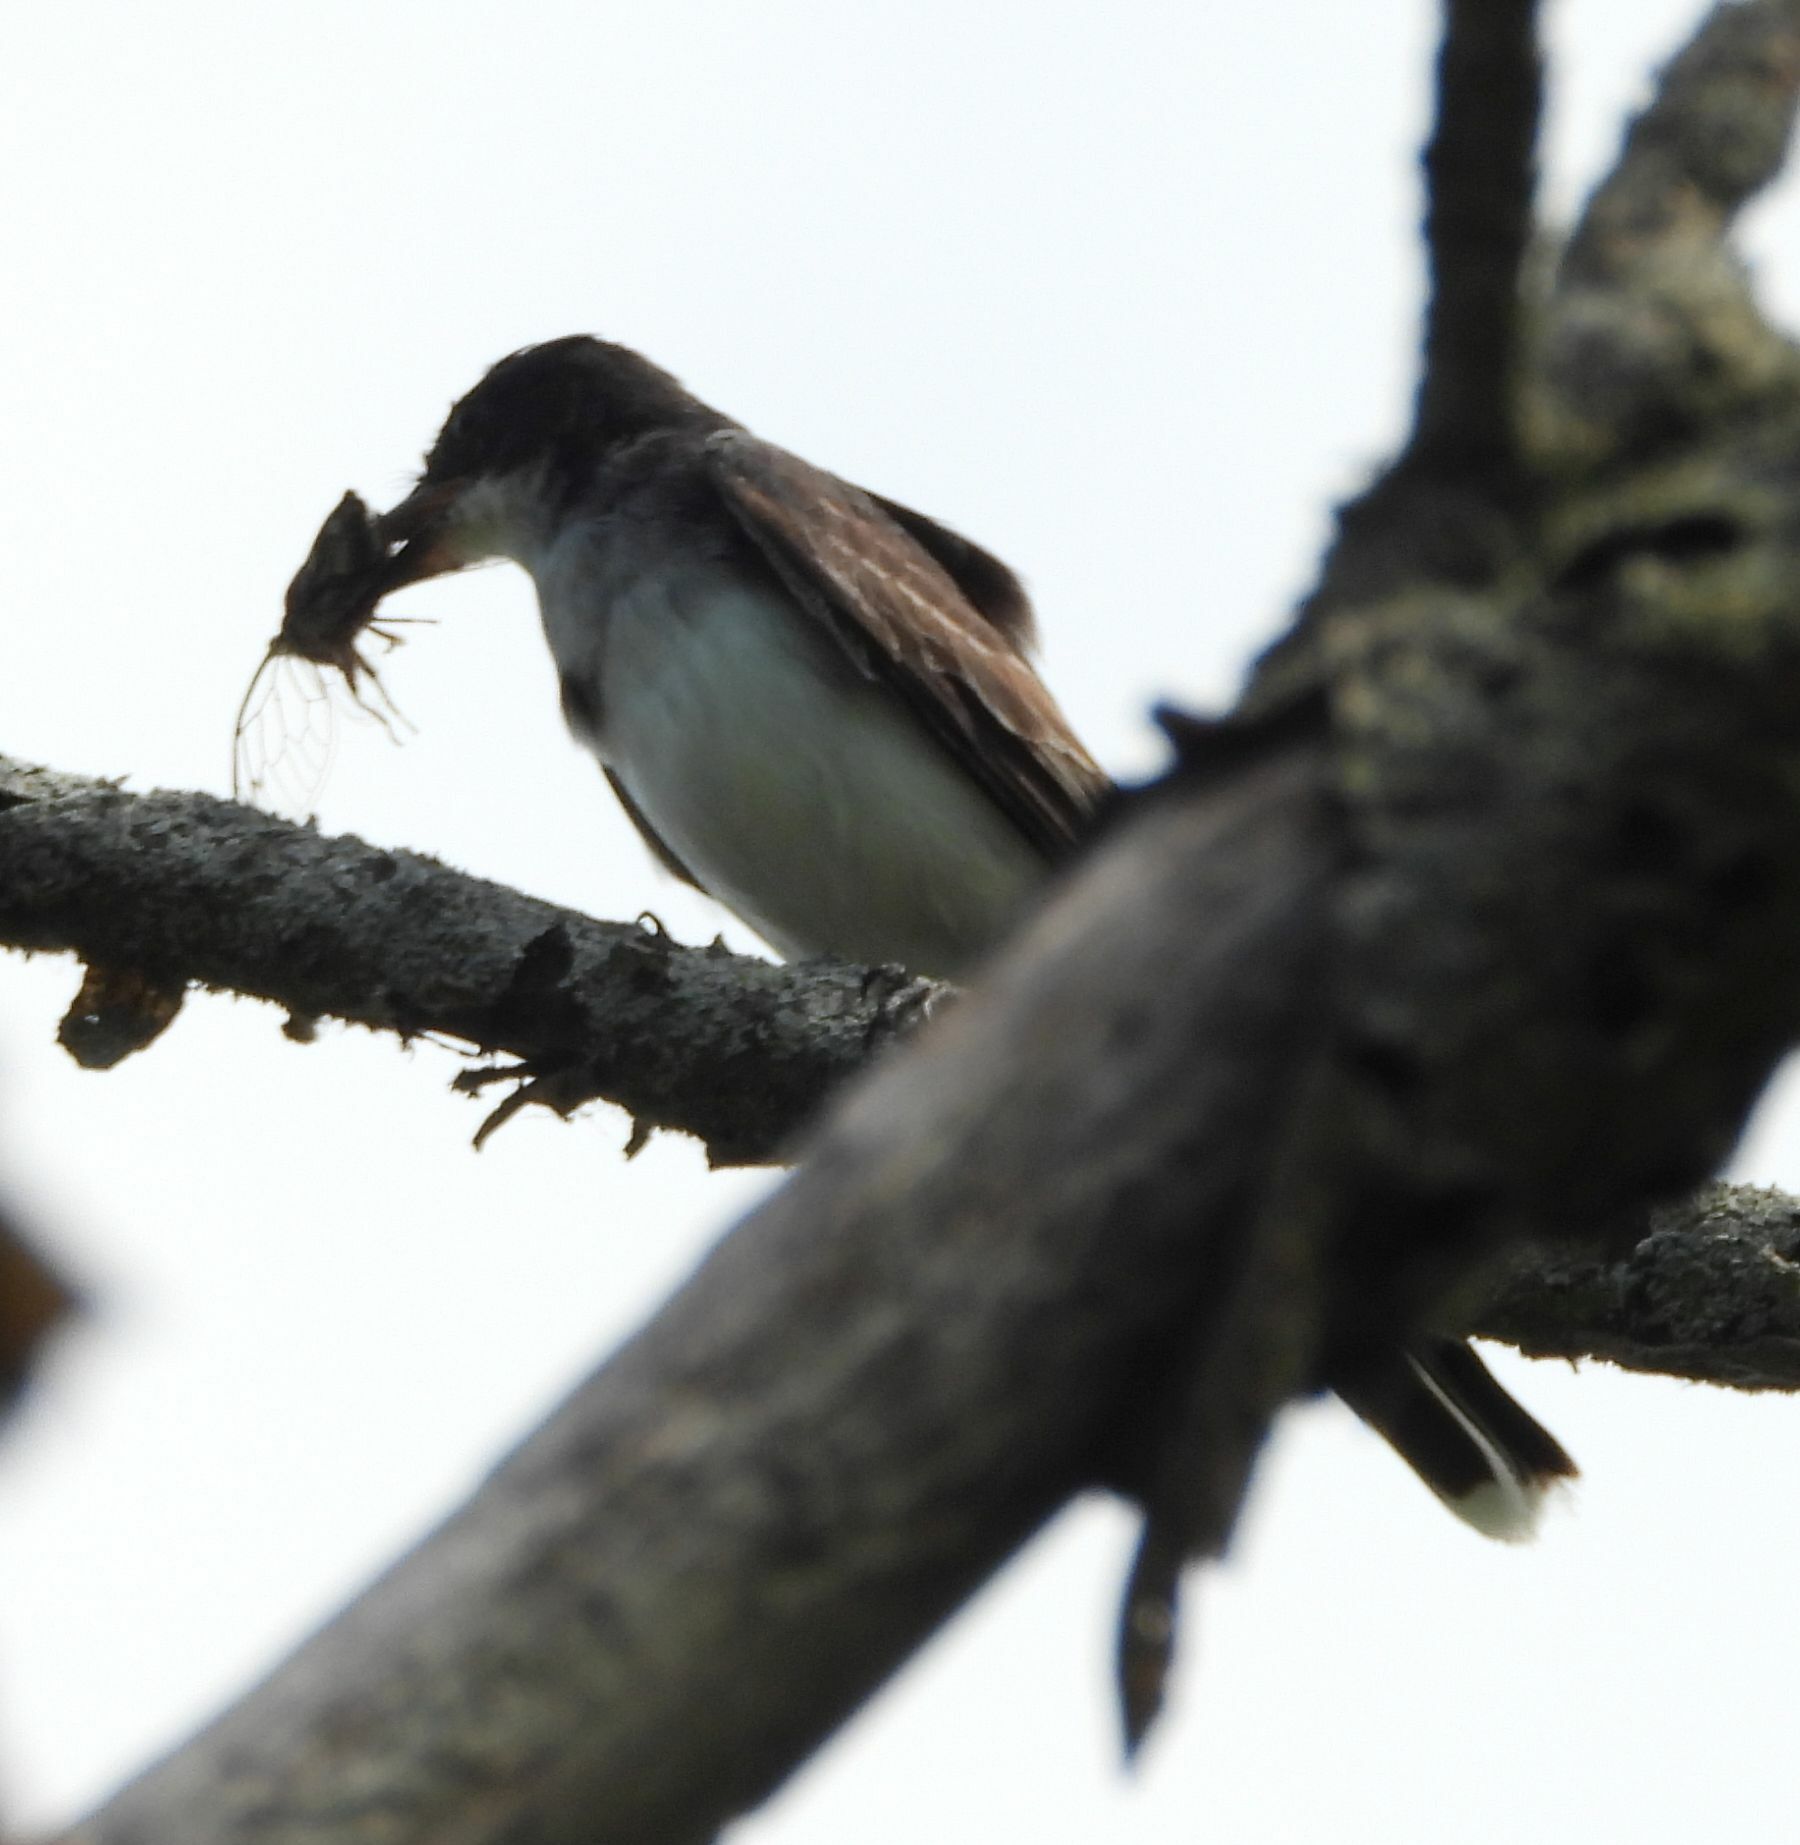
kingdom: Animalia
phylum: Chordata
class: Aves
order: Passeriformes
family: Tyrannidae
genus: Tyrannus
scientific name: Tyrannus tyrannus
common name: Eastern kingbird
